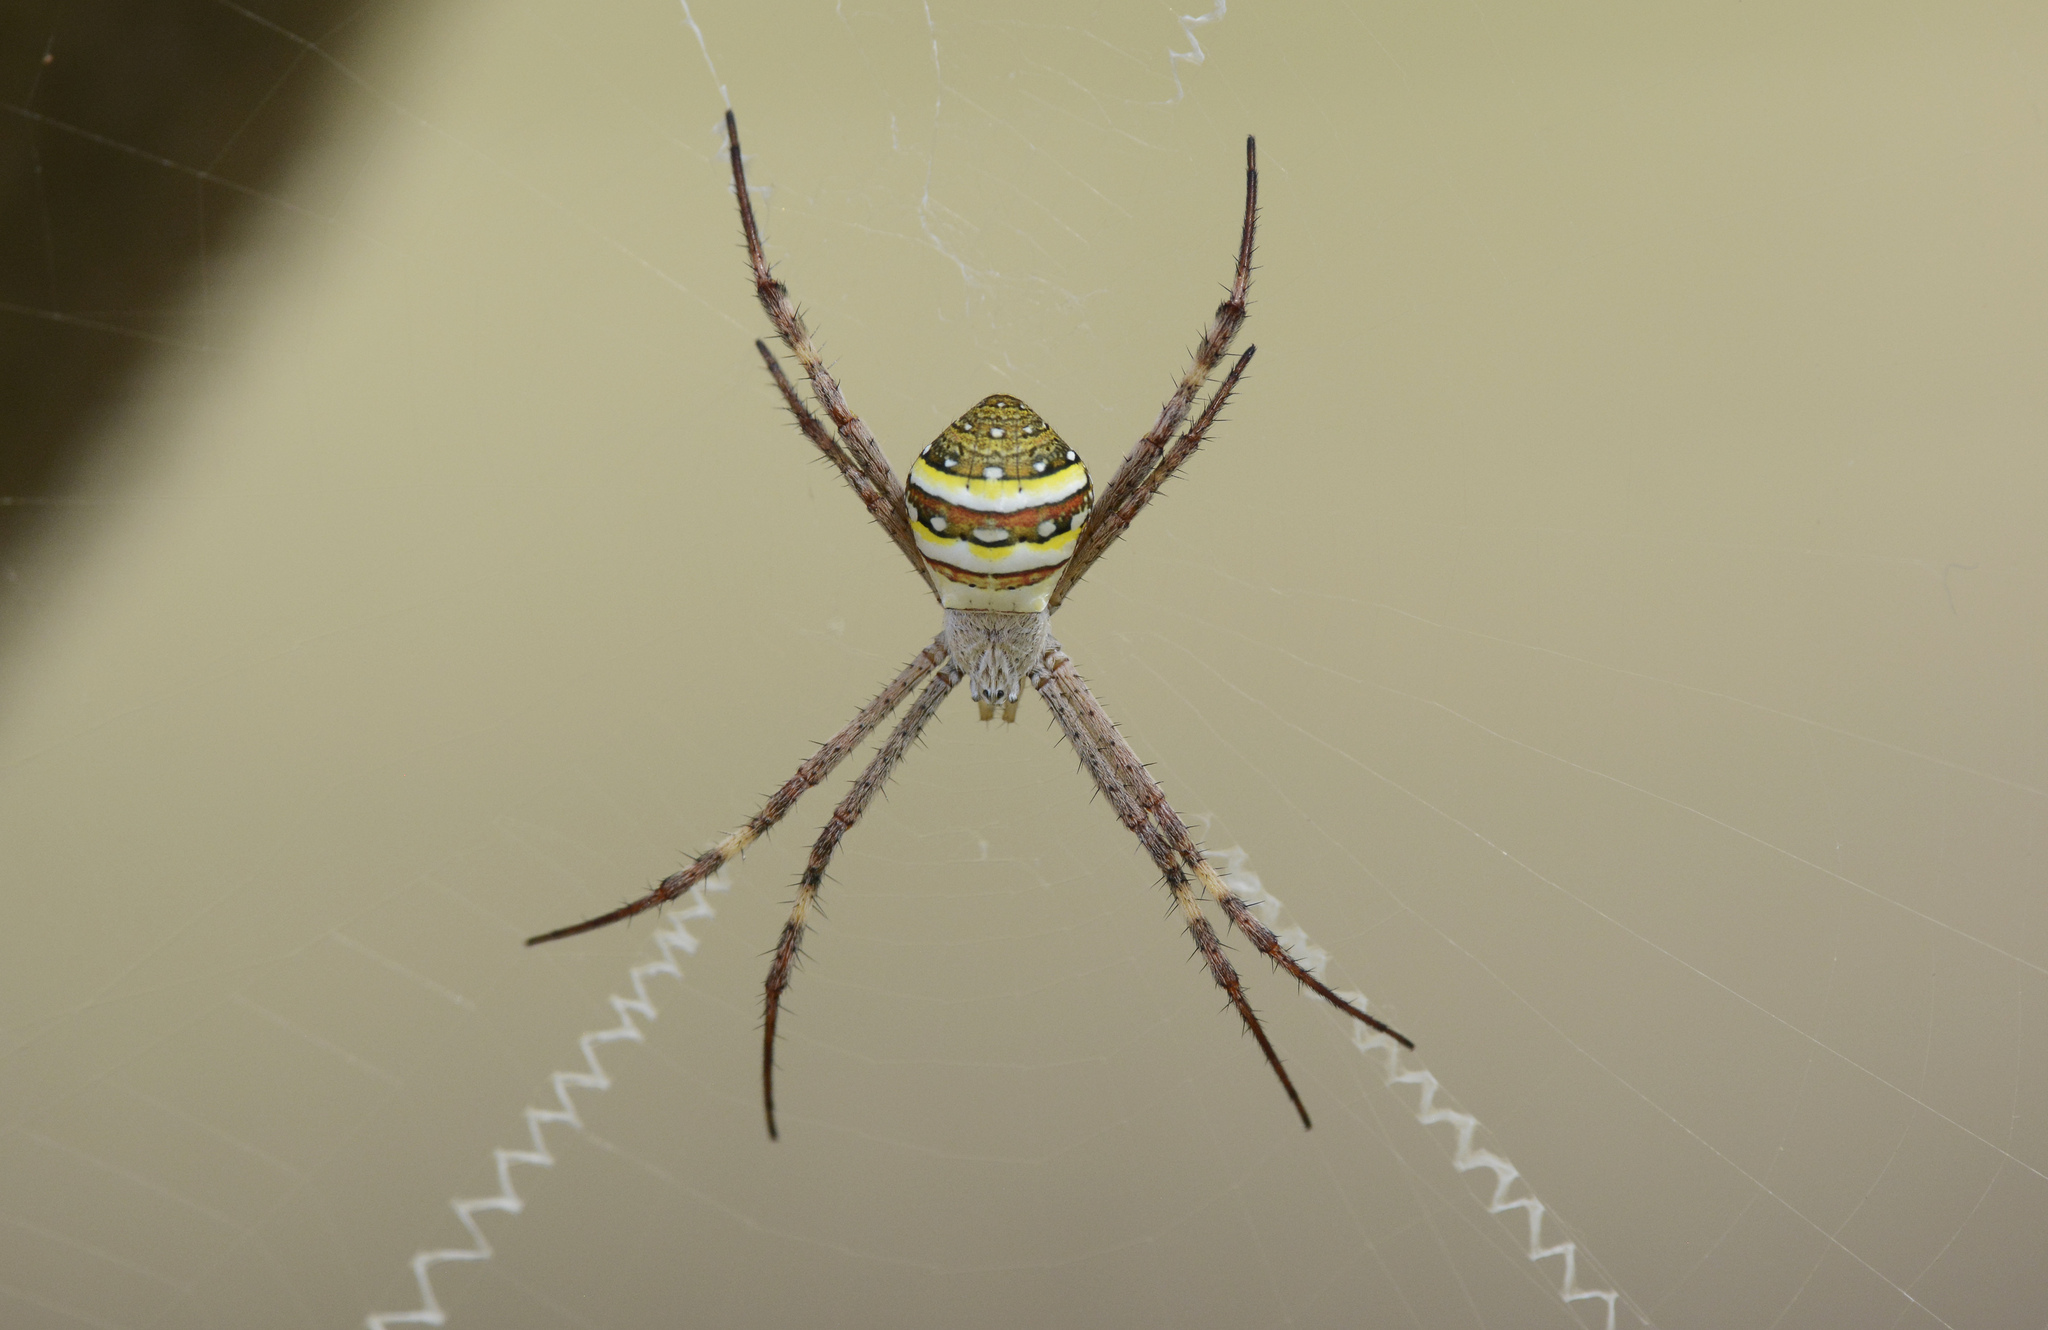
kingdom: Animalia
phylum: Arthropoda
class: Arachnida
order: Araneae
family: Araneidae
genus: Argiope
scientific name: Argiope keyserlingi
